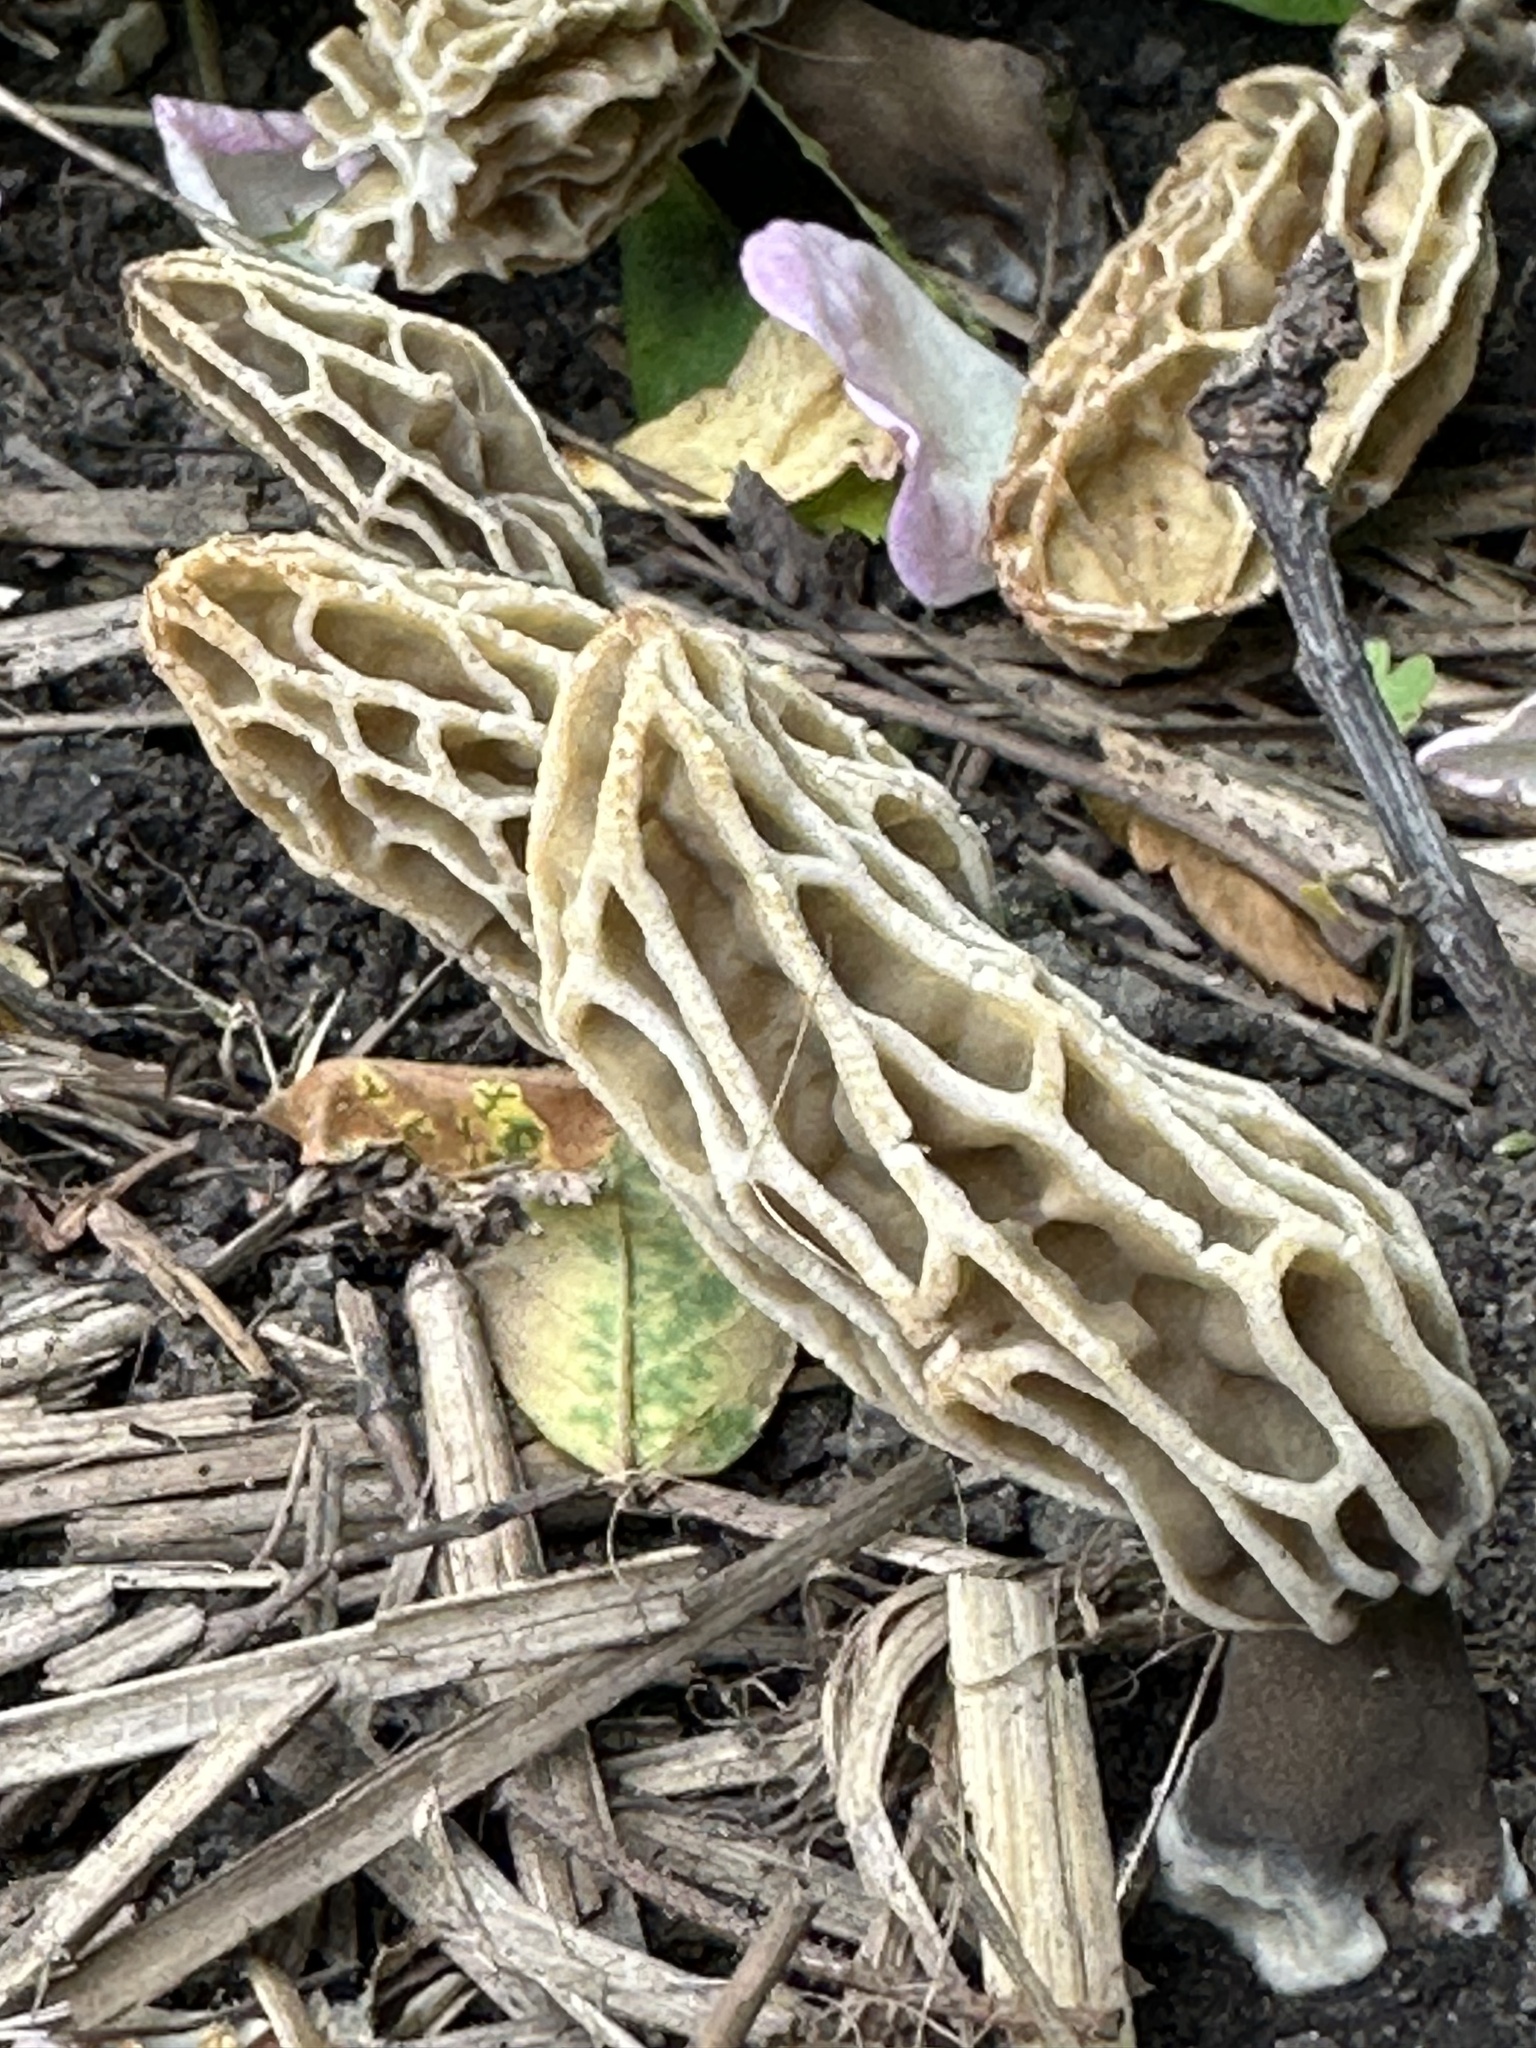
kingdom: Fungi
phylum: Ascomycota
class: Pezizomycetes
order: Pezizales
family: Morchellaceae
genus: Morchella
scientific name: Morchella rufobrunnea
